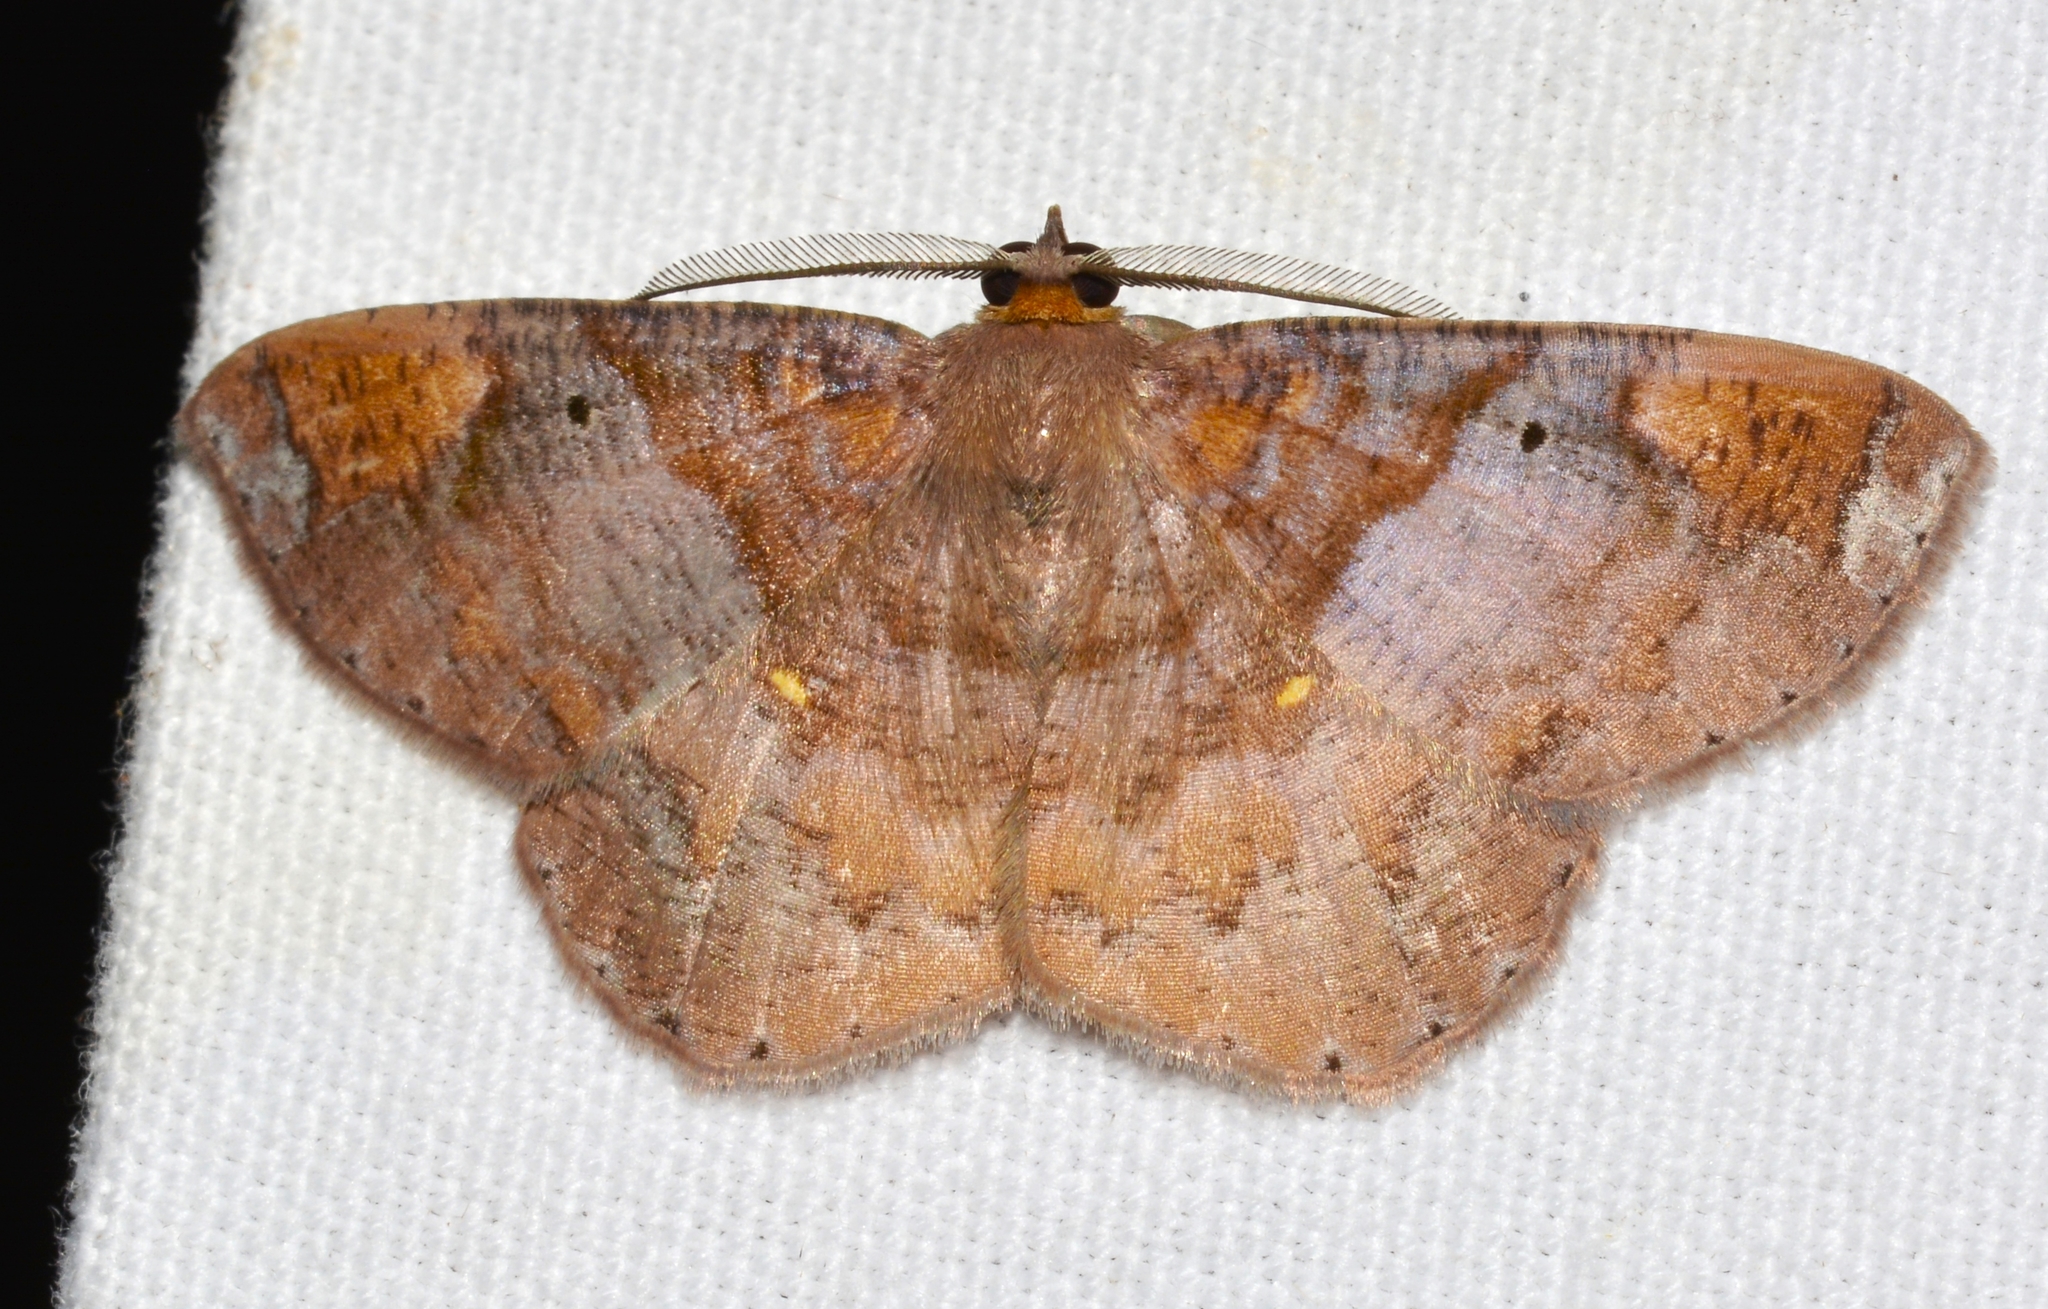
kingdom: Animalia
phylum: Arthropoda
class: Insecta
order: Lepidoptera
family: Geometridae
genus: Thysanopyga
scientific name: Thysanopyga
